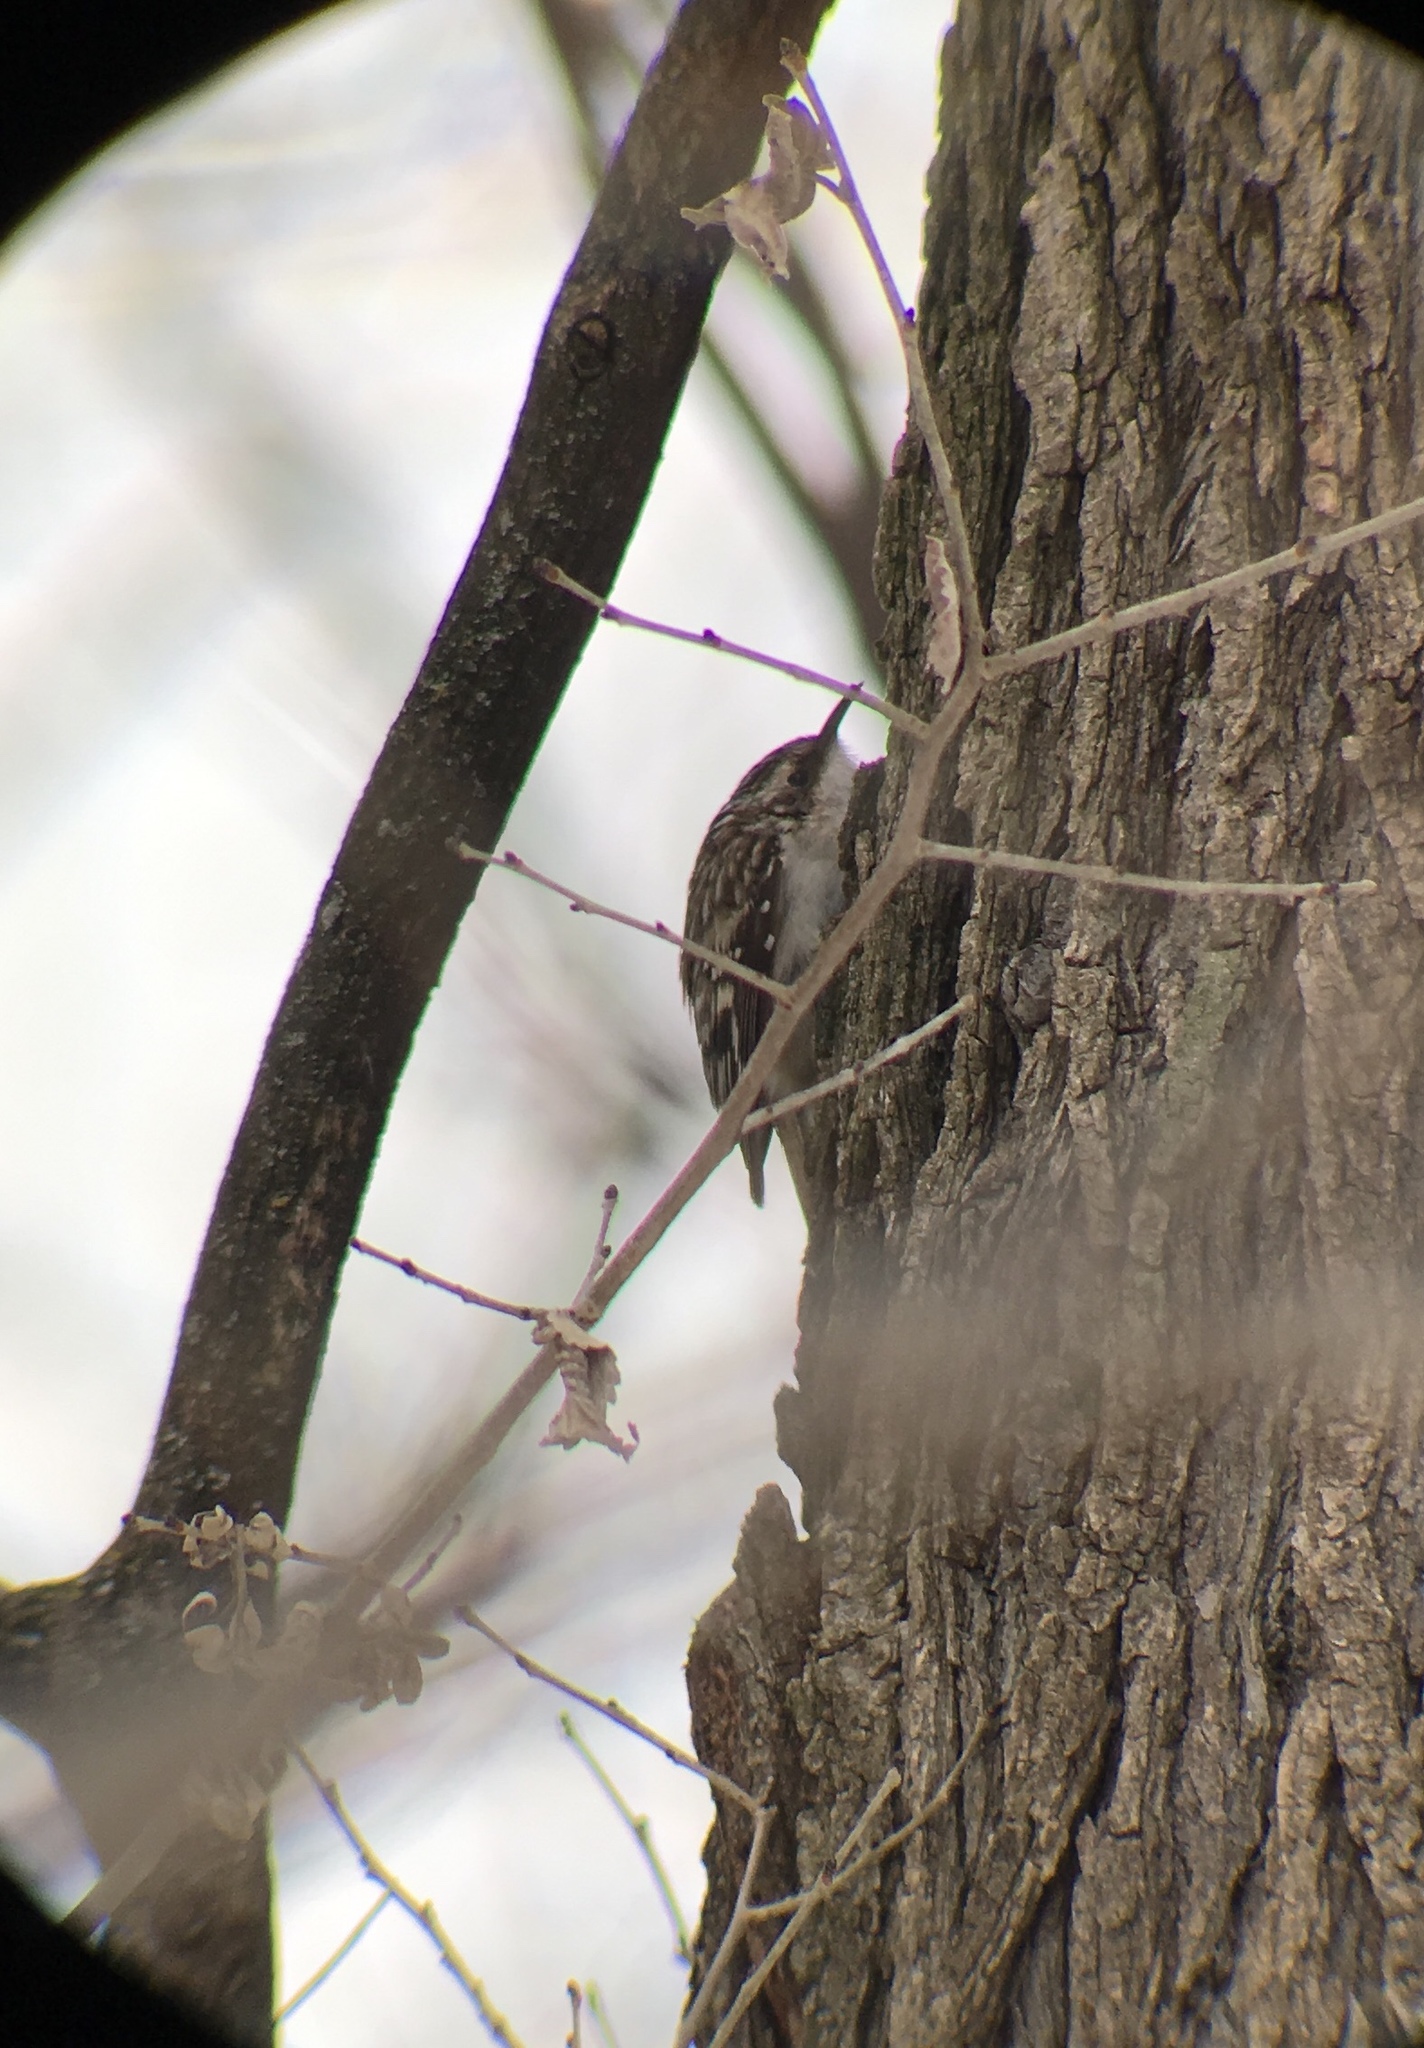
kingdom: Animalia
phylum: Chordata
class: Aves
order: Passeriformes
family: Certhiidae
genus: Certhia
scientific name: Certhia americana
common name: Brown creeper
